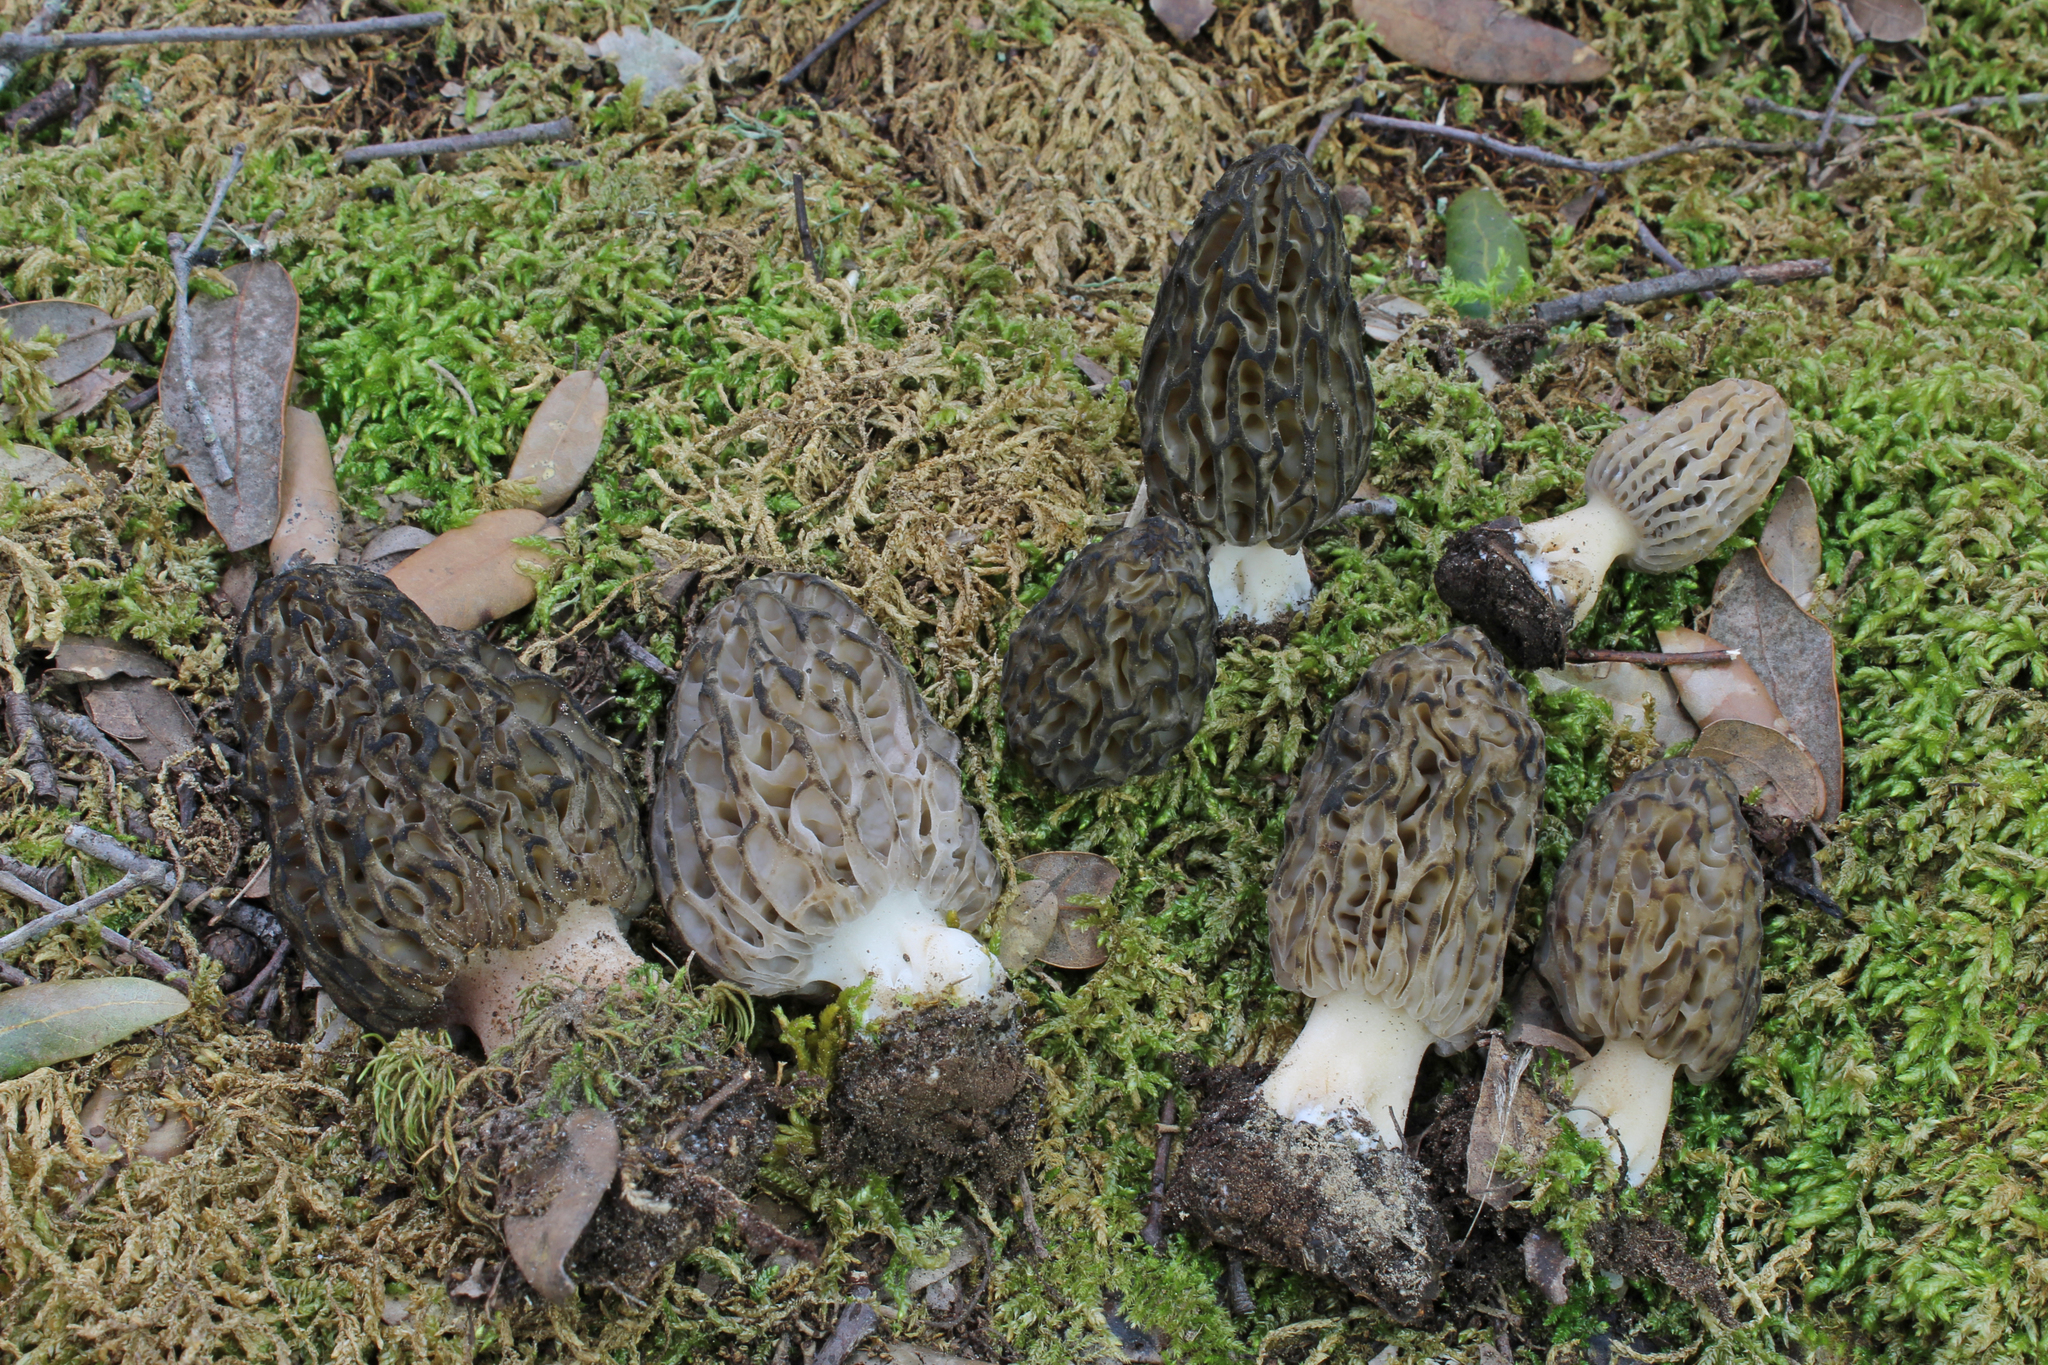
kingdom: Fungi
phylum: Ascomycota
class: Pezizomycetes
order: Pezizales
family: Morchellaceae
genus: Morchella
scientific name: Morchella dunalii
